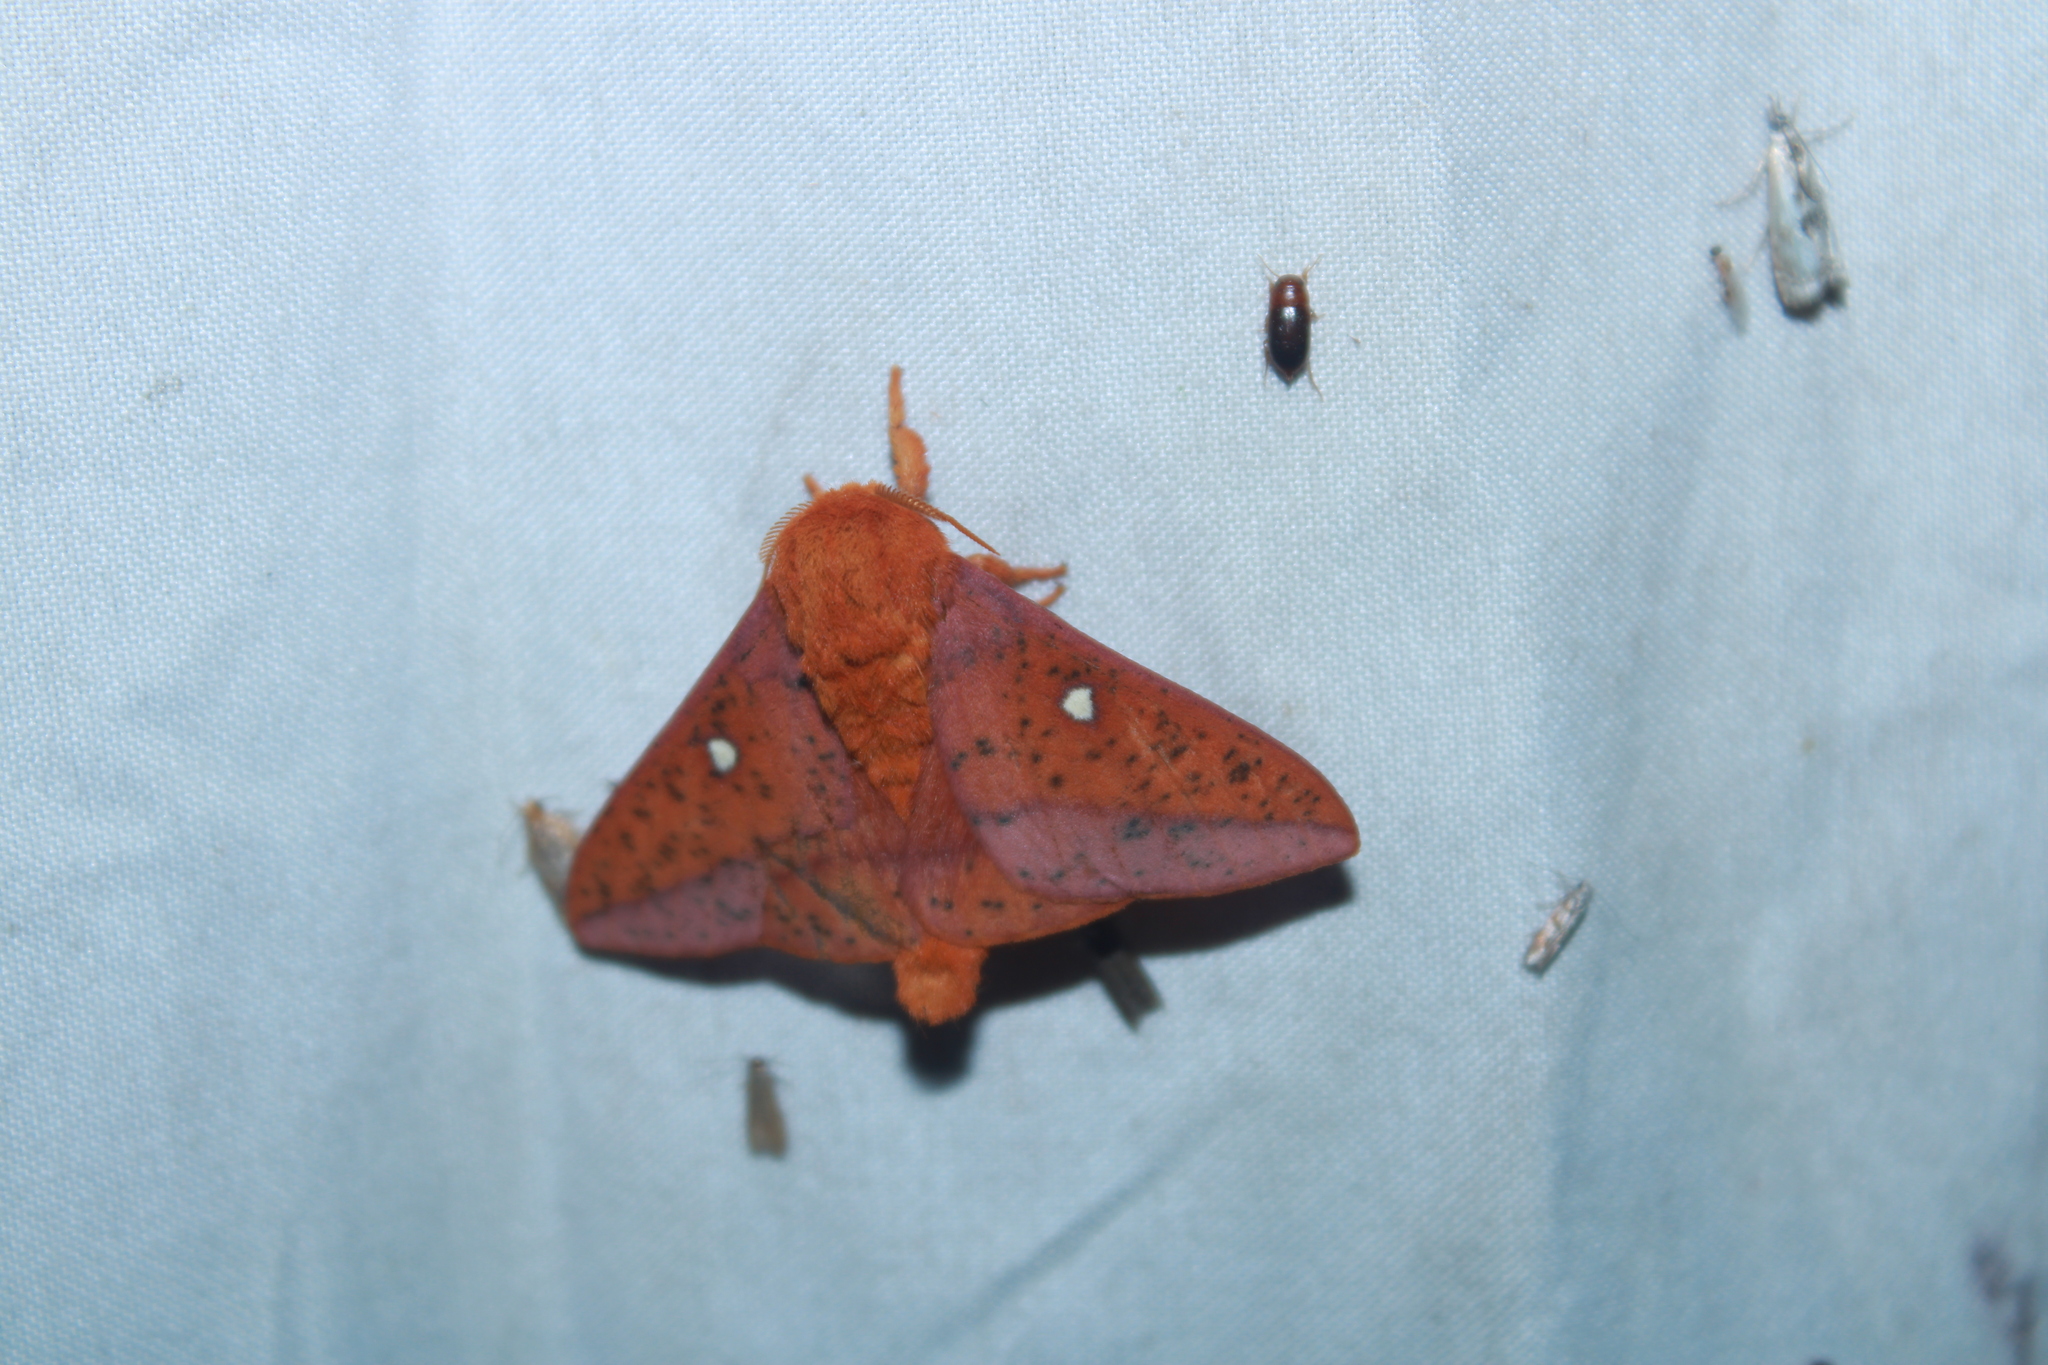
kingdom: Animalia
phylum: Arthropoda
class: Insecta
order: Lepidoptera
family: Saturniidae
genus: Anisota
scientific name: Anisota stigma
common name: Spiny oakworm moth
